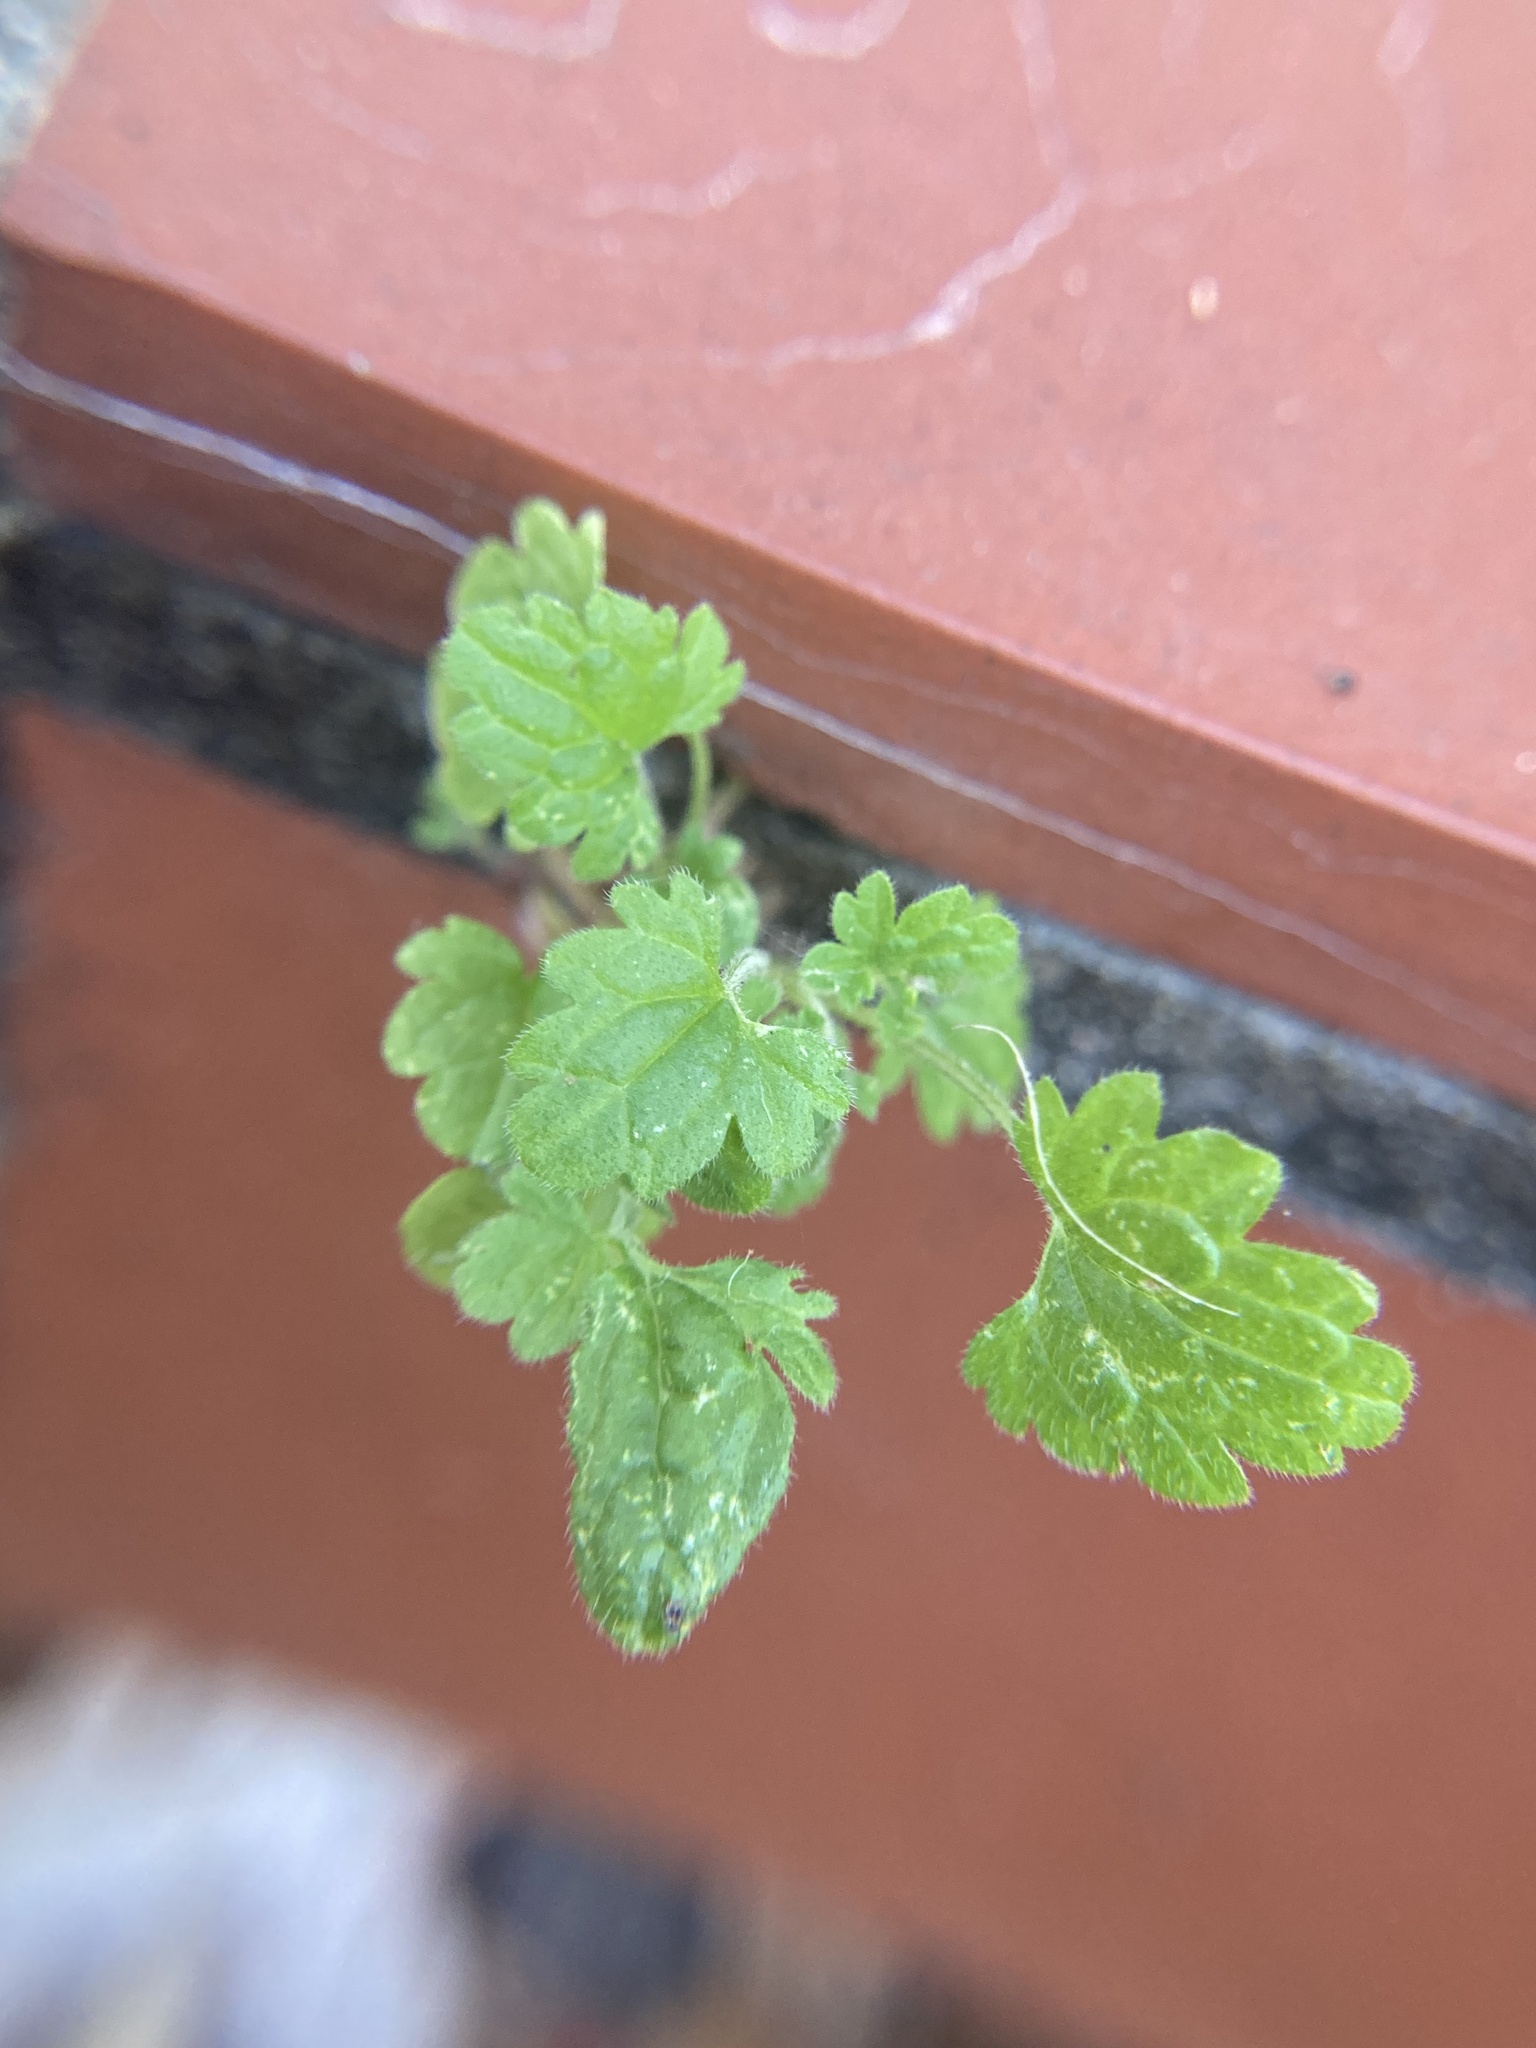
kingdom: Plantae
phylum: Tracheophyta
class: Magnoliopsida
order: Lamiales
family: Lamiaceae
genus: Lamium
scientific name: Lamium amplexicaule
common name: Henbit dead-nettle
